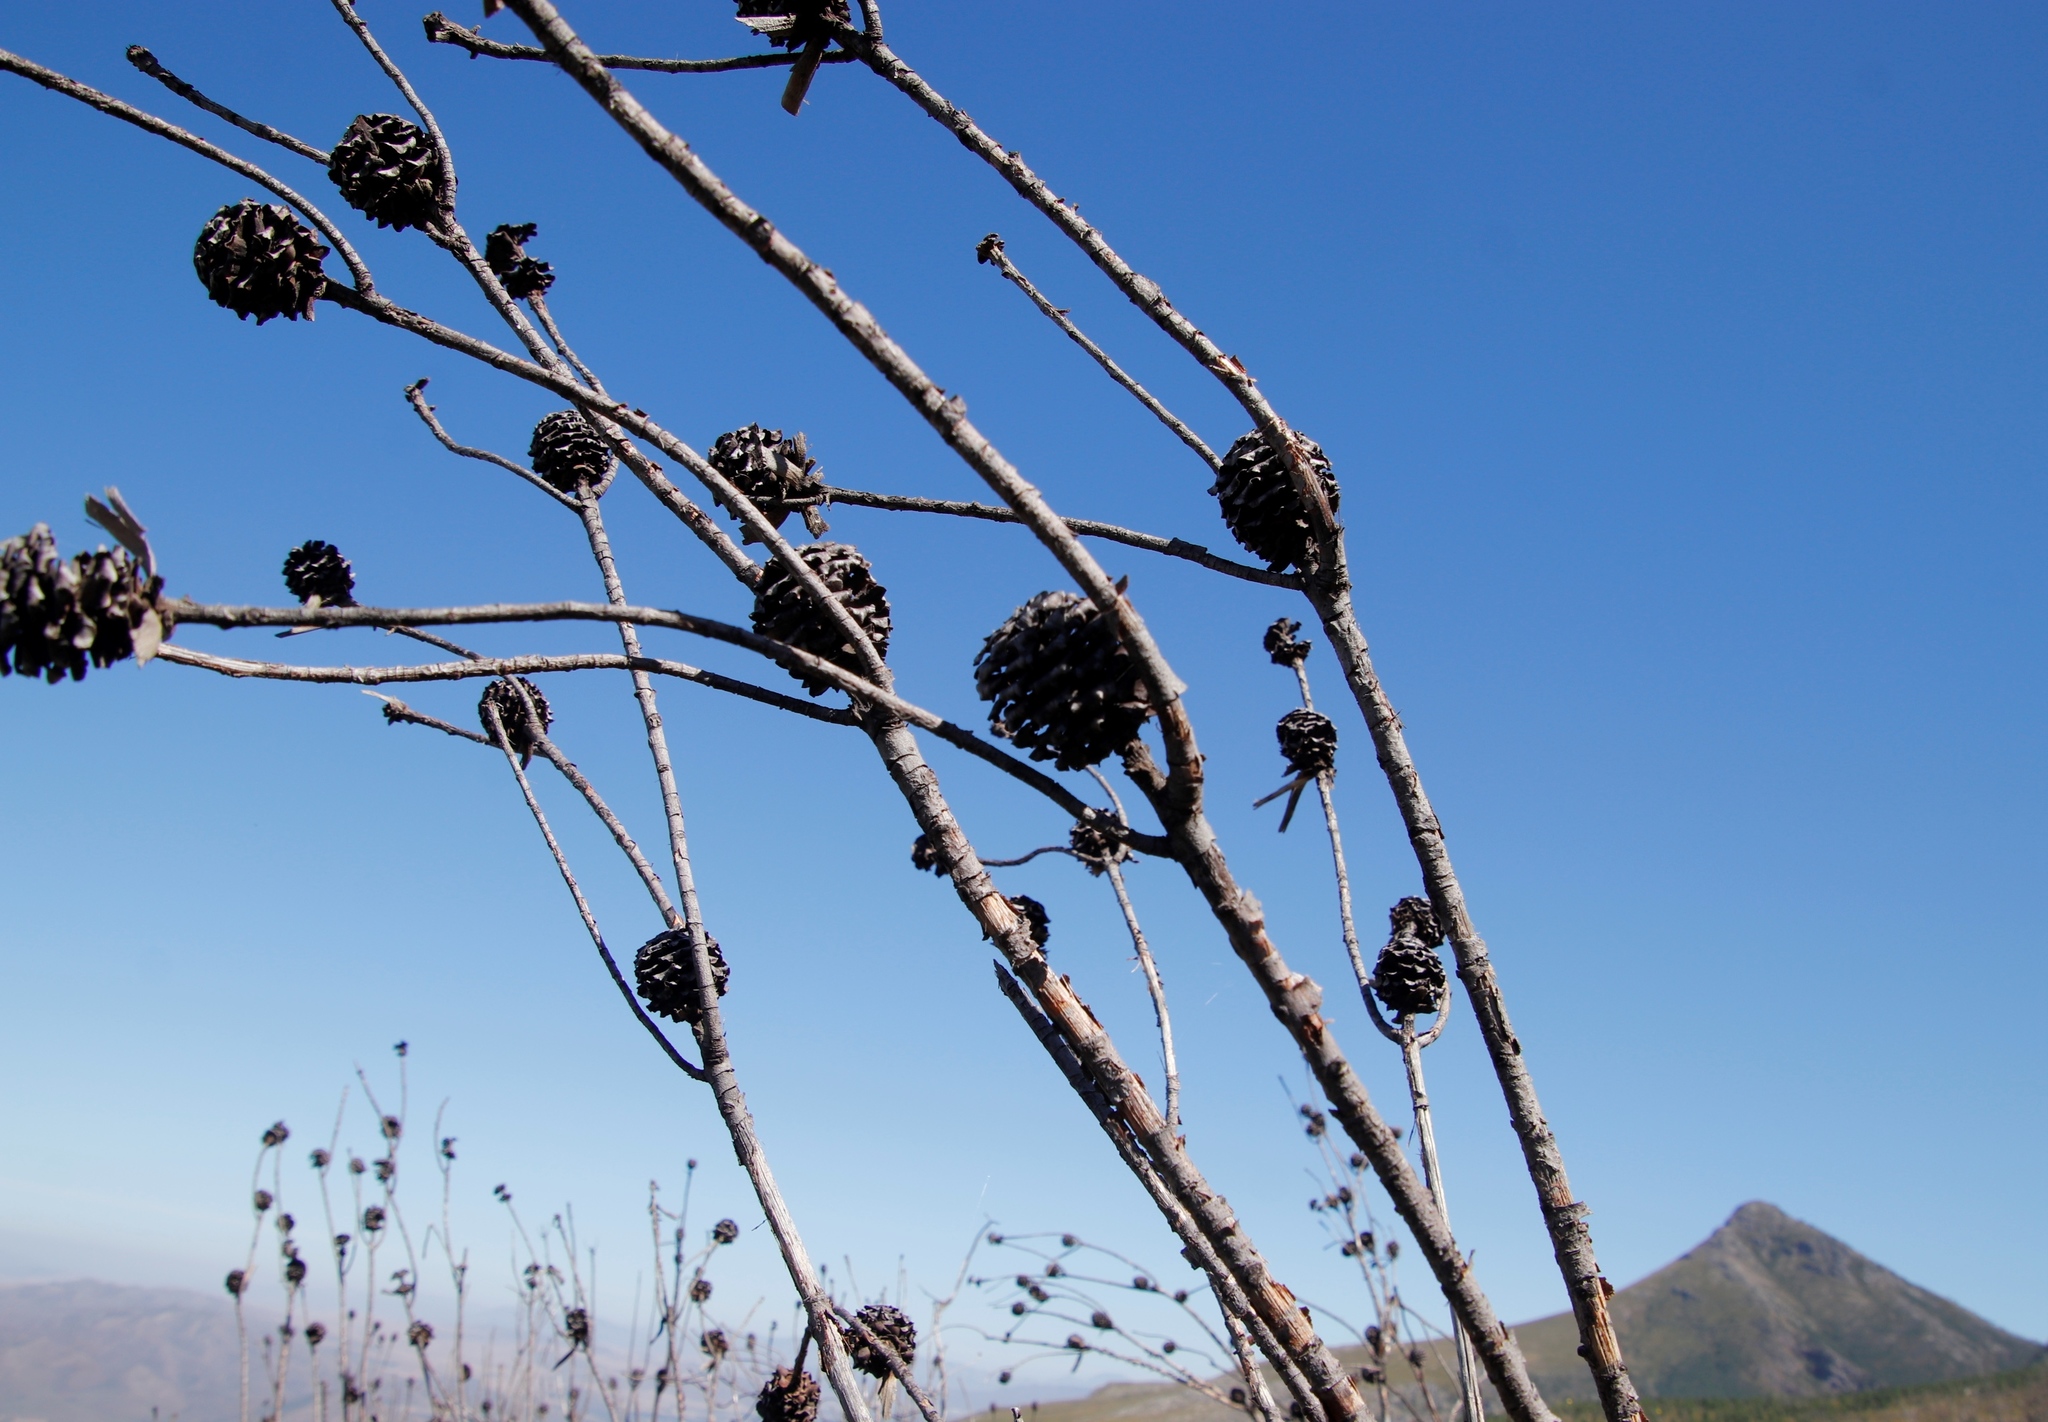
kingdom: Plantae
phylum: Tracheophyta
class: Magnoliopsida
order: Proteales
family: Proteaceae
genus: Leucadendron
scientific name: Leucadendron salicifolium
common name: Common stream conebush
